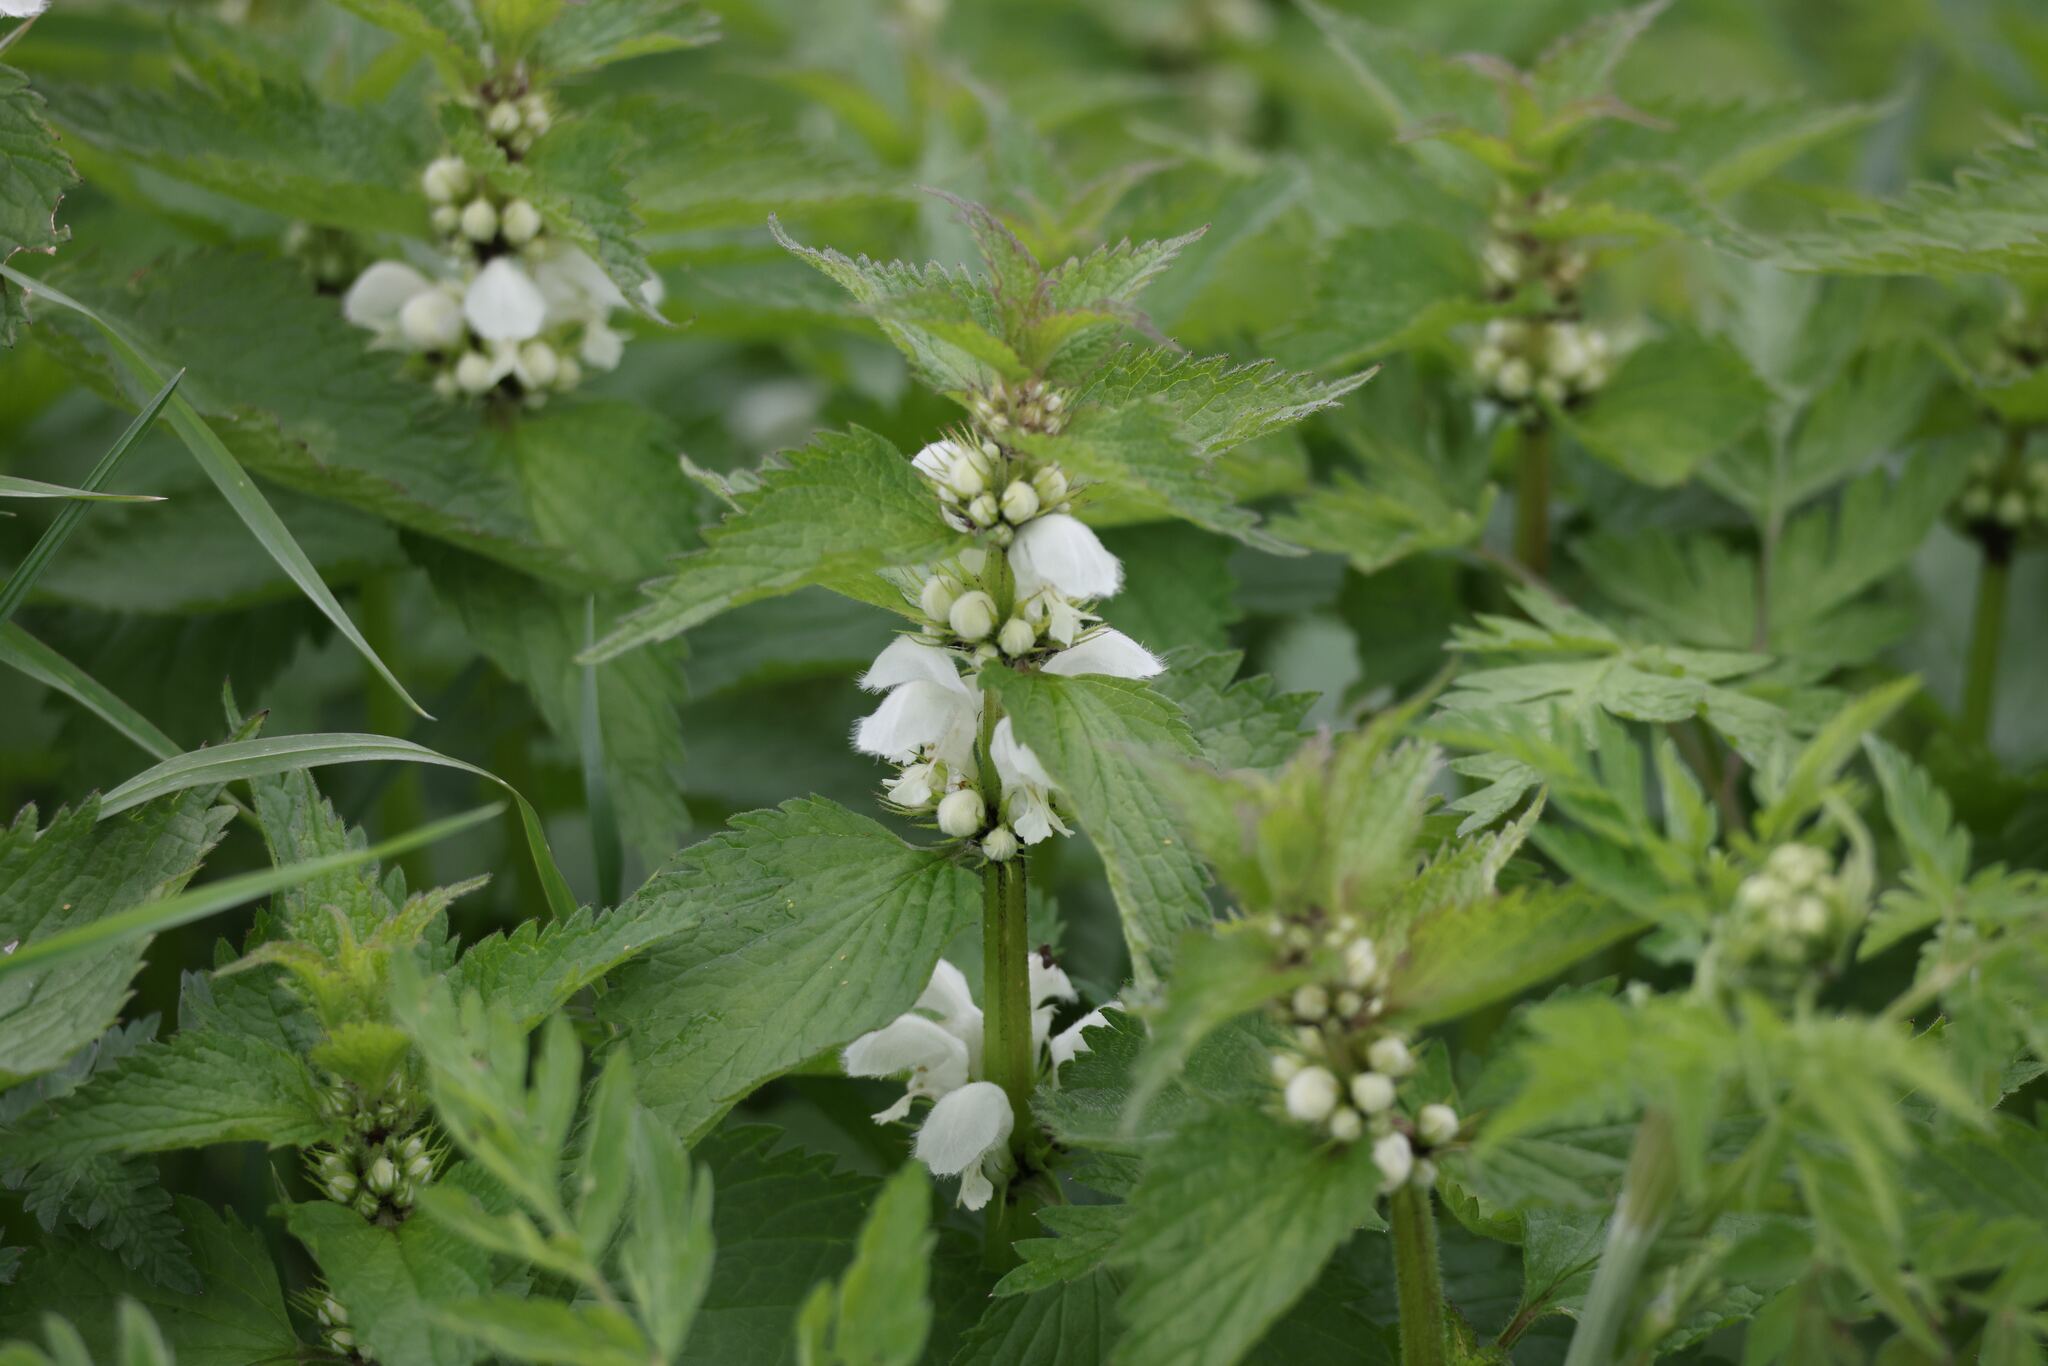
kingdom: Plantae
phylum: Tracheophyta
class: Magnoliopsida
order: Lamiales
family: Lamiaceae
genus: Lamium
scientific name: Lamium album
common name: White dead-nettle
